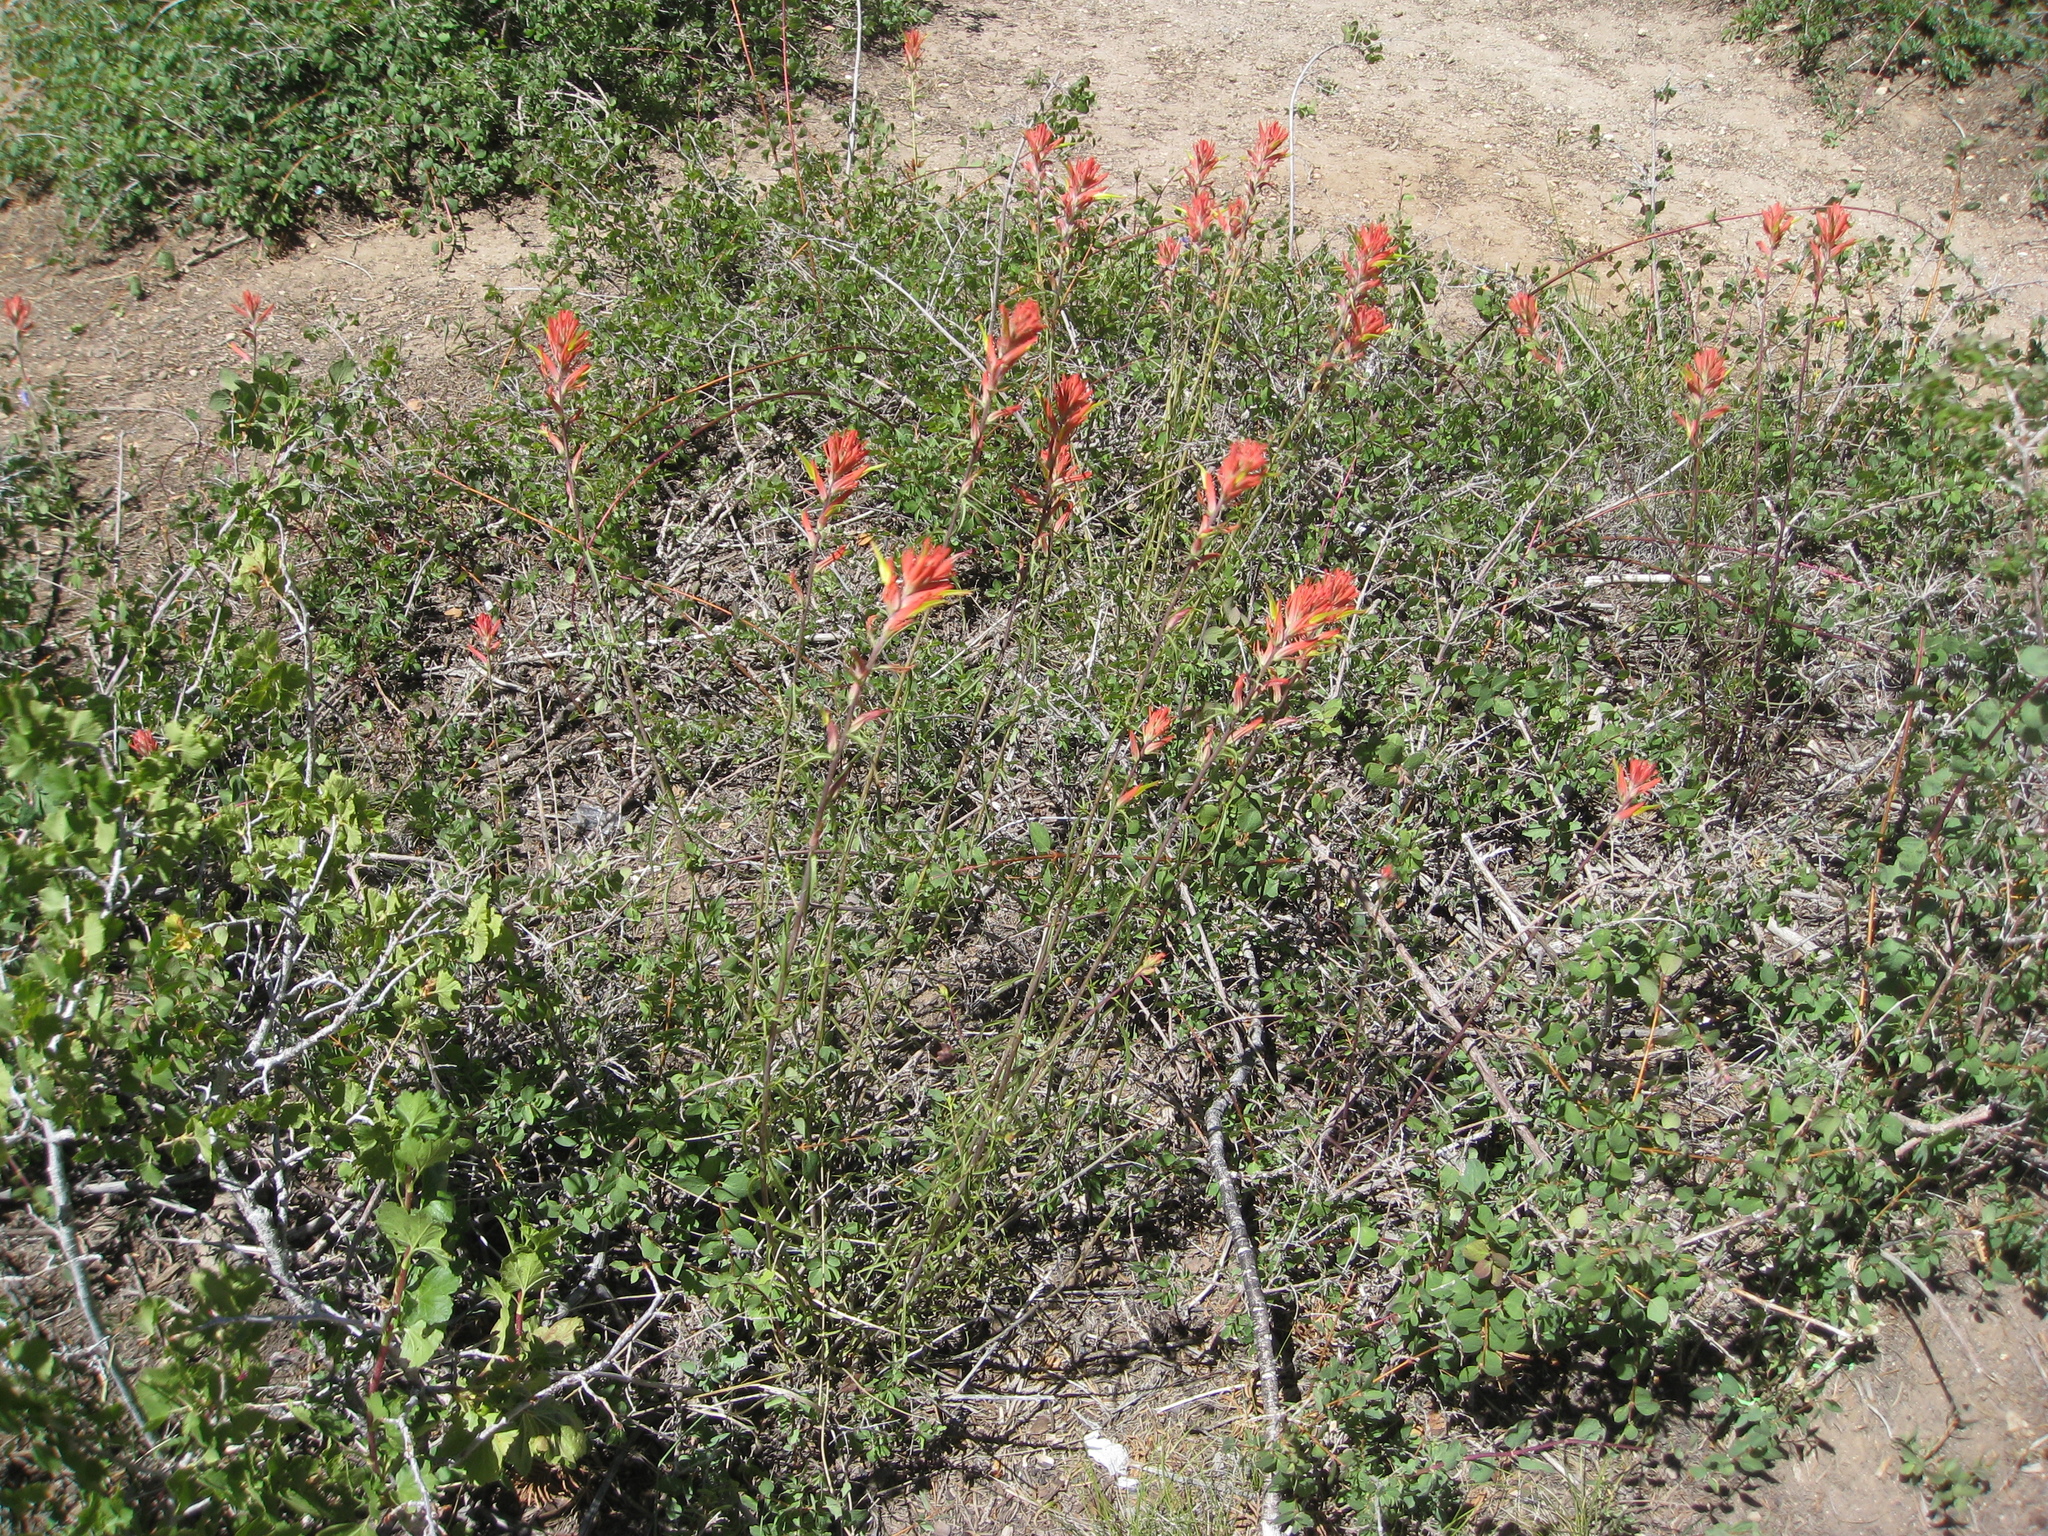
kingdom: Plantae
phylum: Tracheophyta
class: Magnoliopsida
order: Lamiales
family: Orobanchaceae
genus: Castilleja
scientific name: Castilleja linariifolia
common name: Wyoming paintbrush
